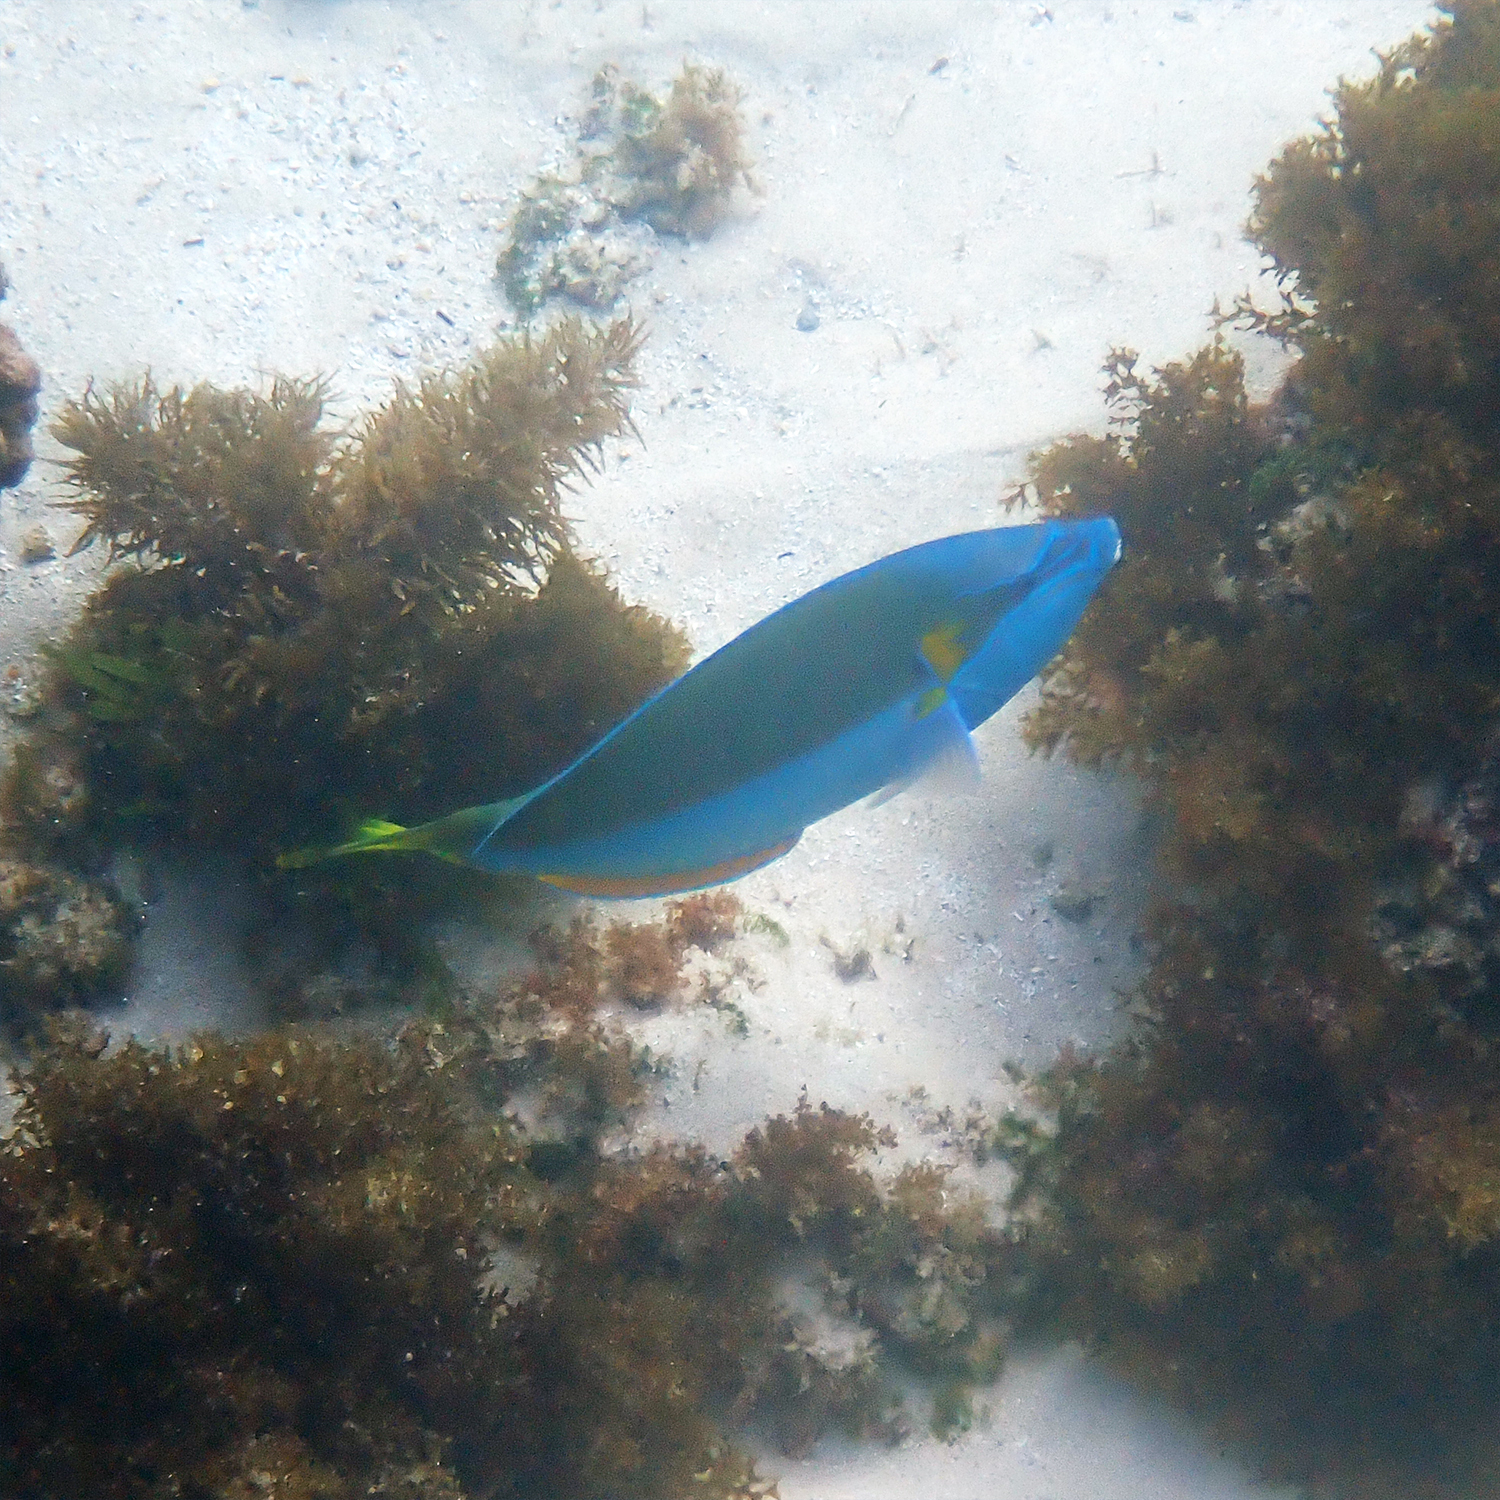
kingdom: Animalia
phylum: Chordata
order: Perciformes
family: Labridae
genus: Anampses
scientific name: Anampses elegans
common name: Elegant wrasse
